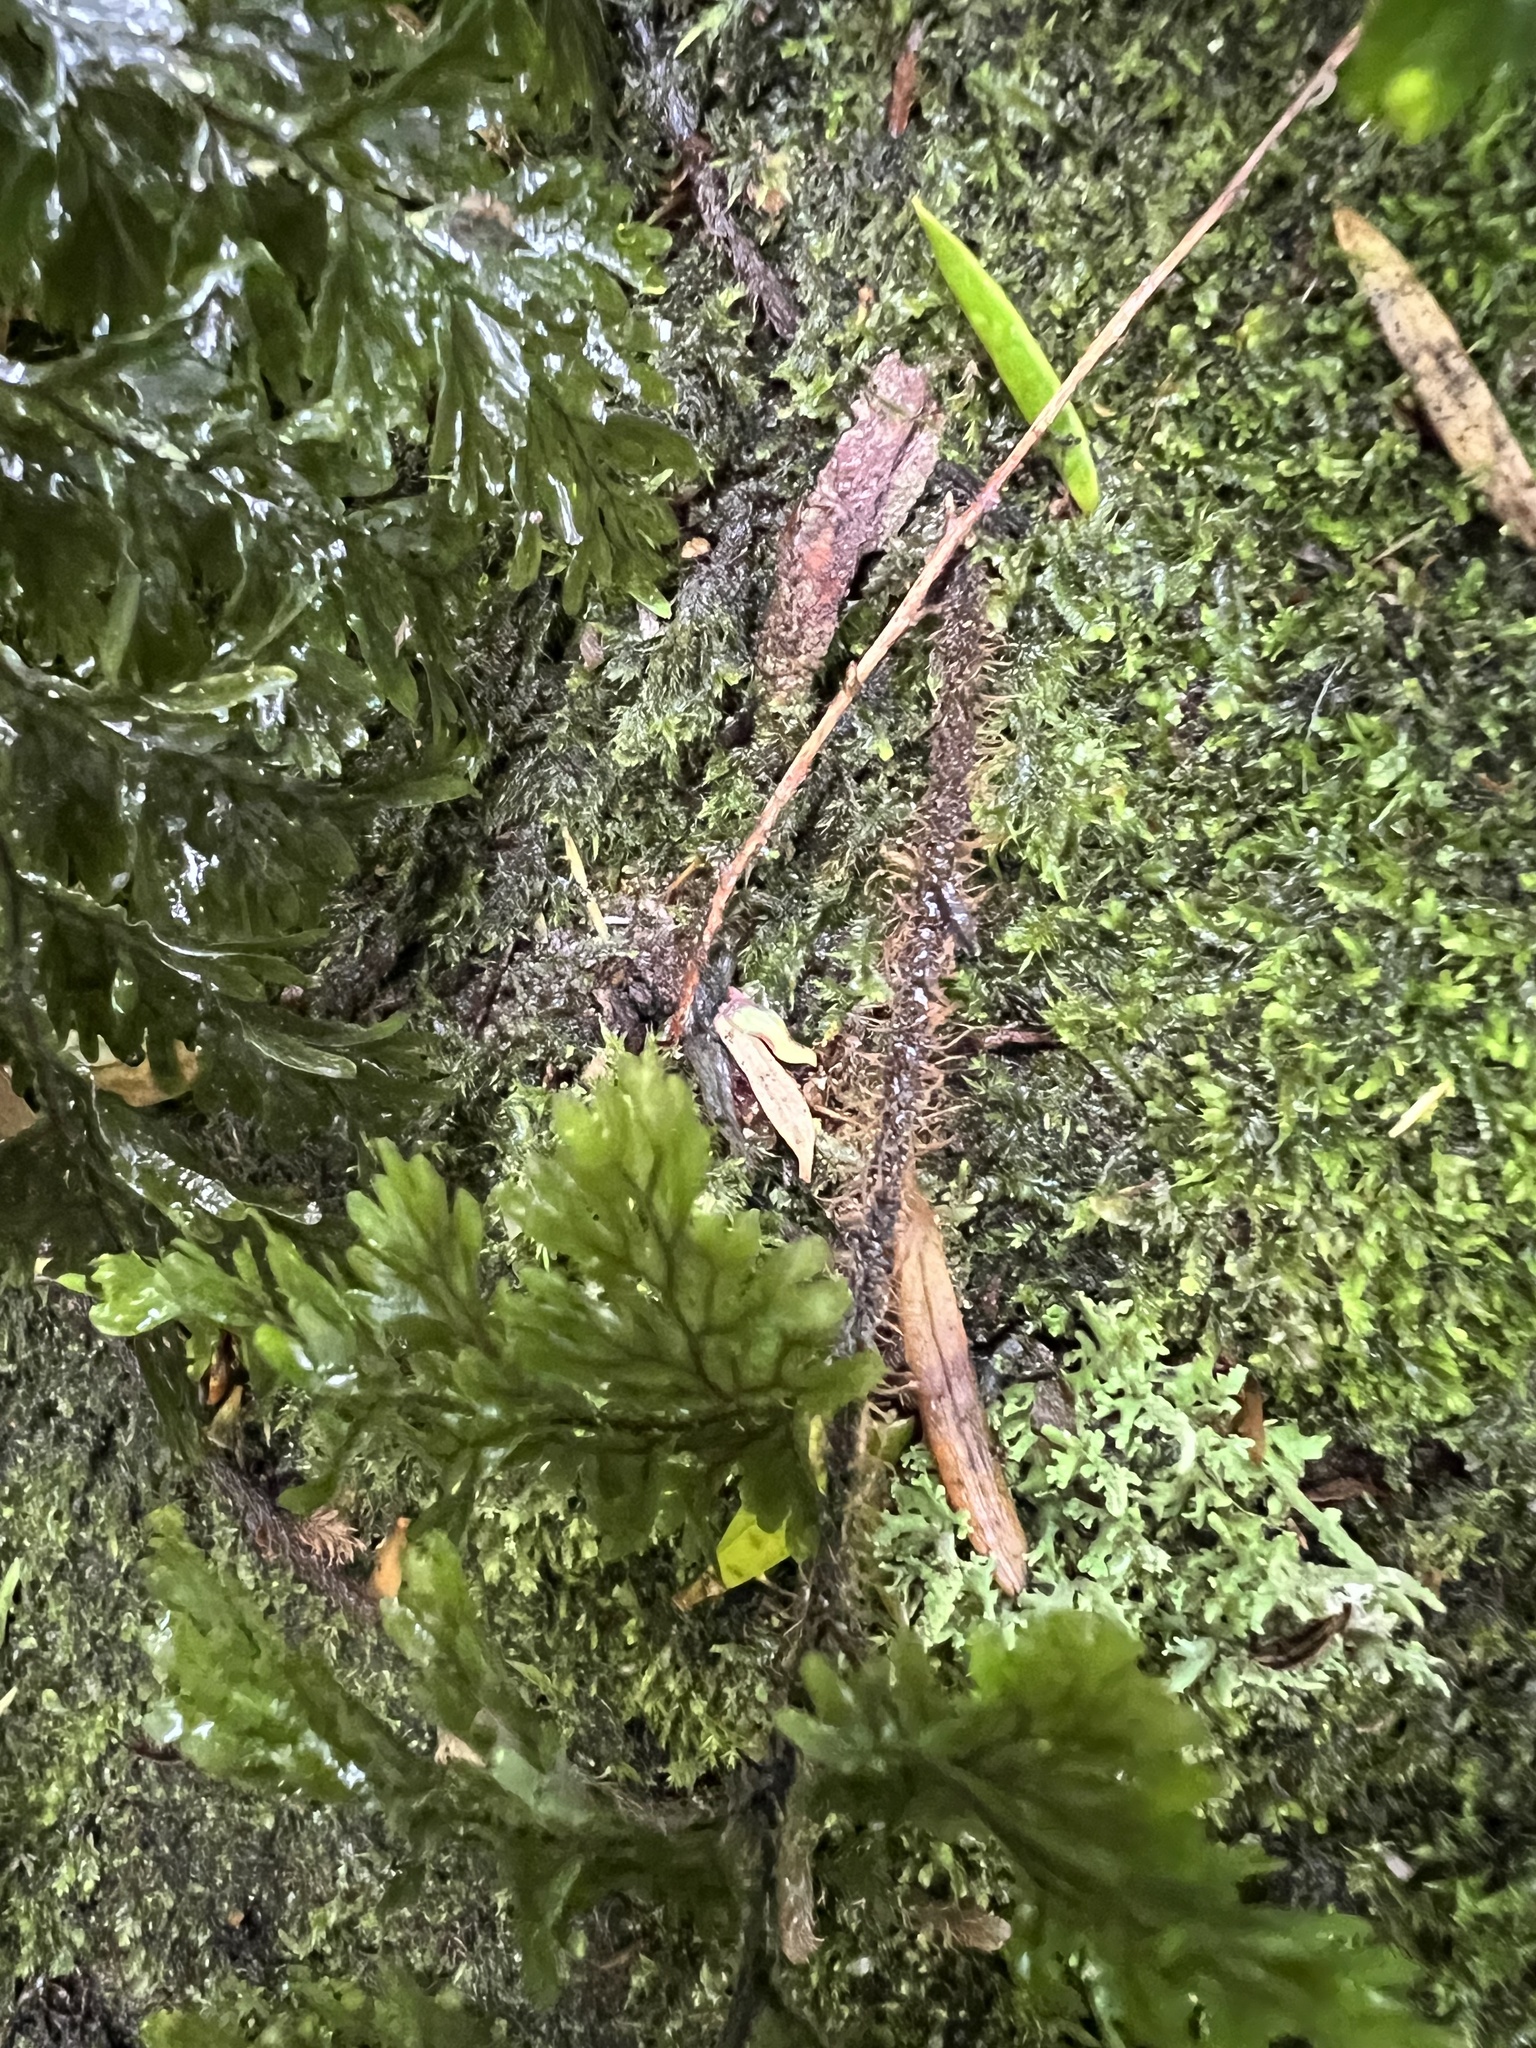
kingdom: Plantae
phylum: Tracheophyta
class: Polypodiopsida
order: Hymenophyllales
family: Hymenophyllaceae
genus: Hymenophyllum
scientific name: Hymenophyllum scabrum
